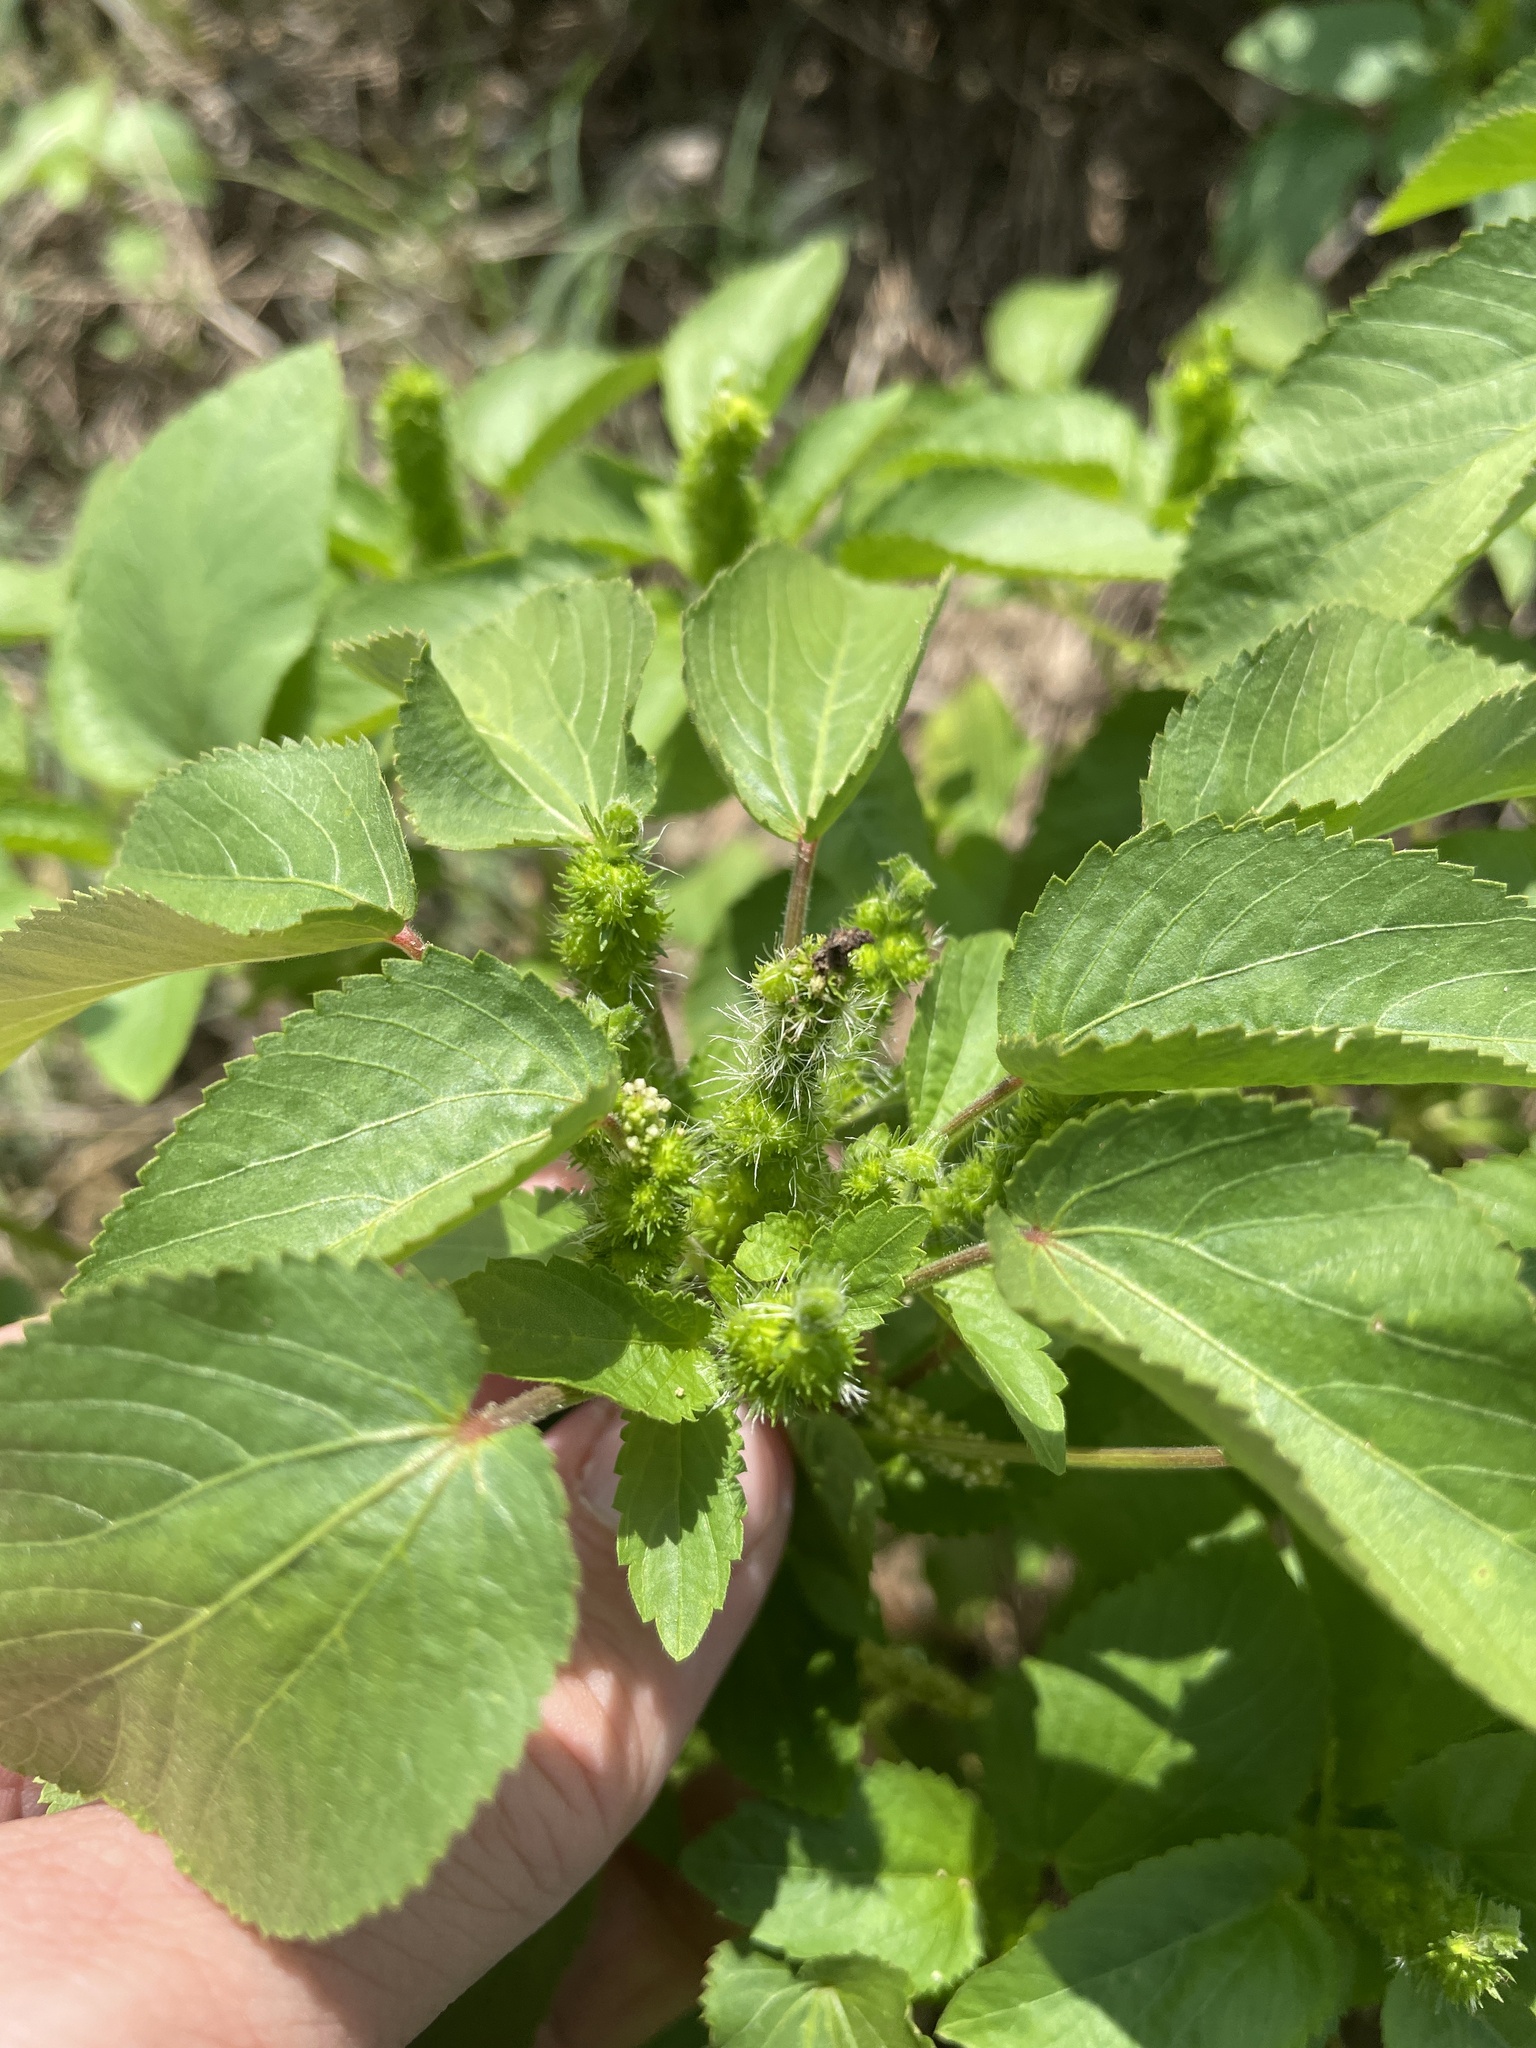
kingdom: Plantae
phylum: Tracheophyta
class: Magnoliopsida
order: Malpighiales
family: Euphorbiaceae
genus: Acalypha
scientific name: Acalypha ostryifolia
